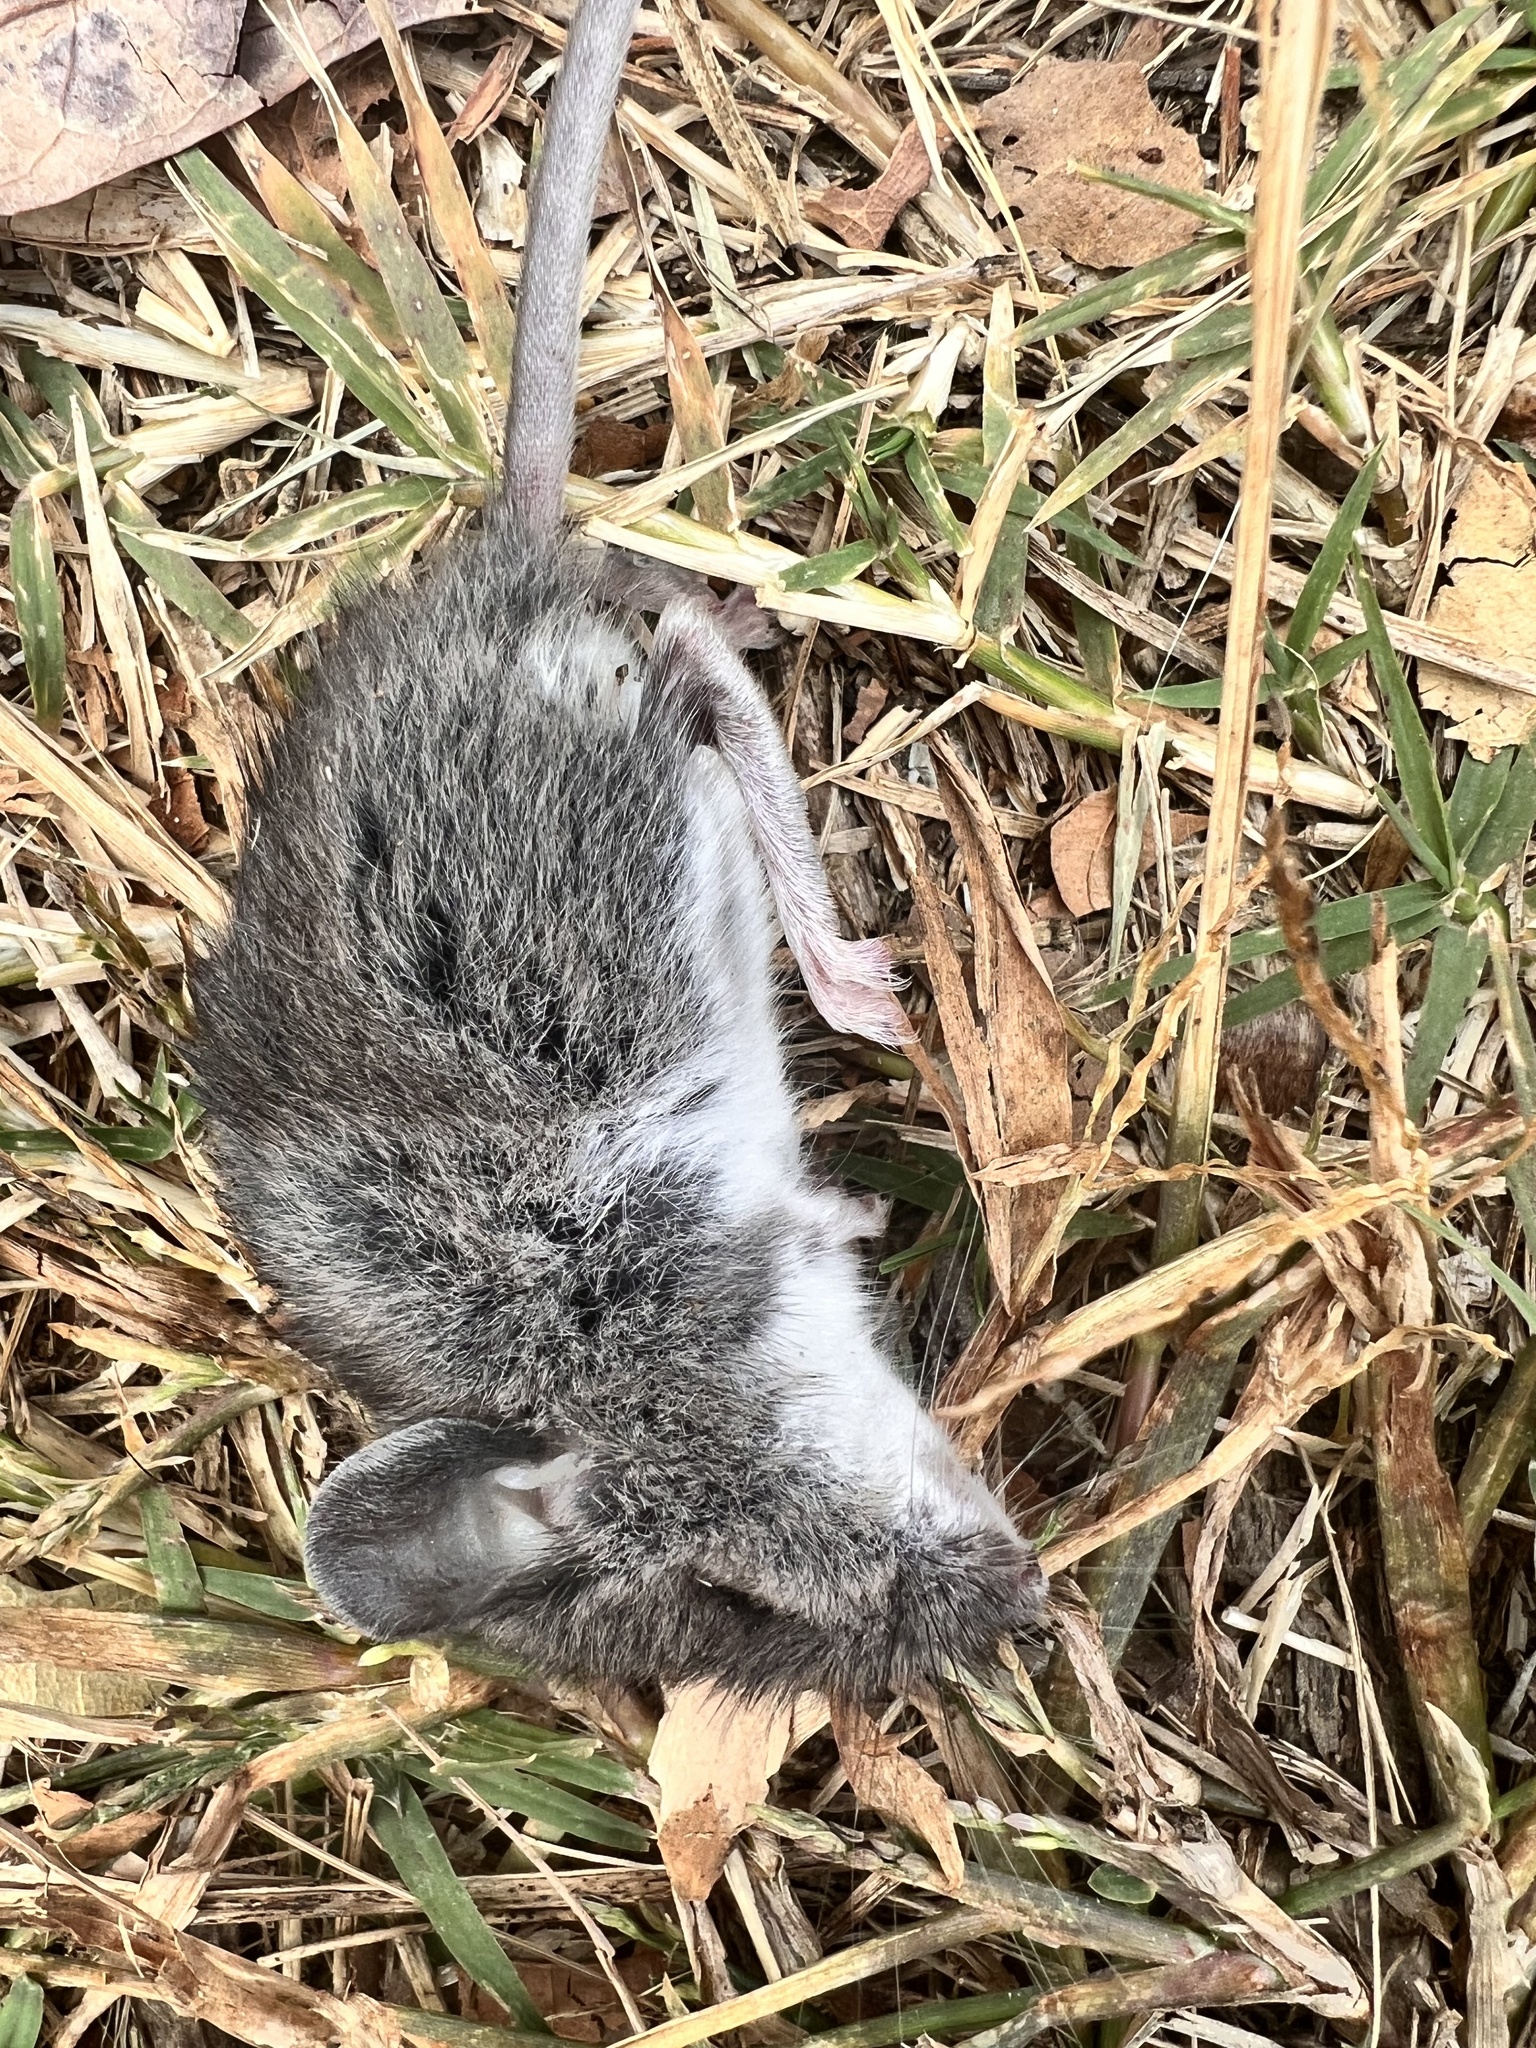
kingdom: Animalia
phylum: Chordata
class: Mammalia
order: Rodentia
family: Cricetidae
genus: Peromyscus
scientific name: Peromyscus leucopus
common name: White-footed deermouse
